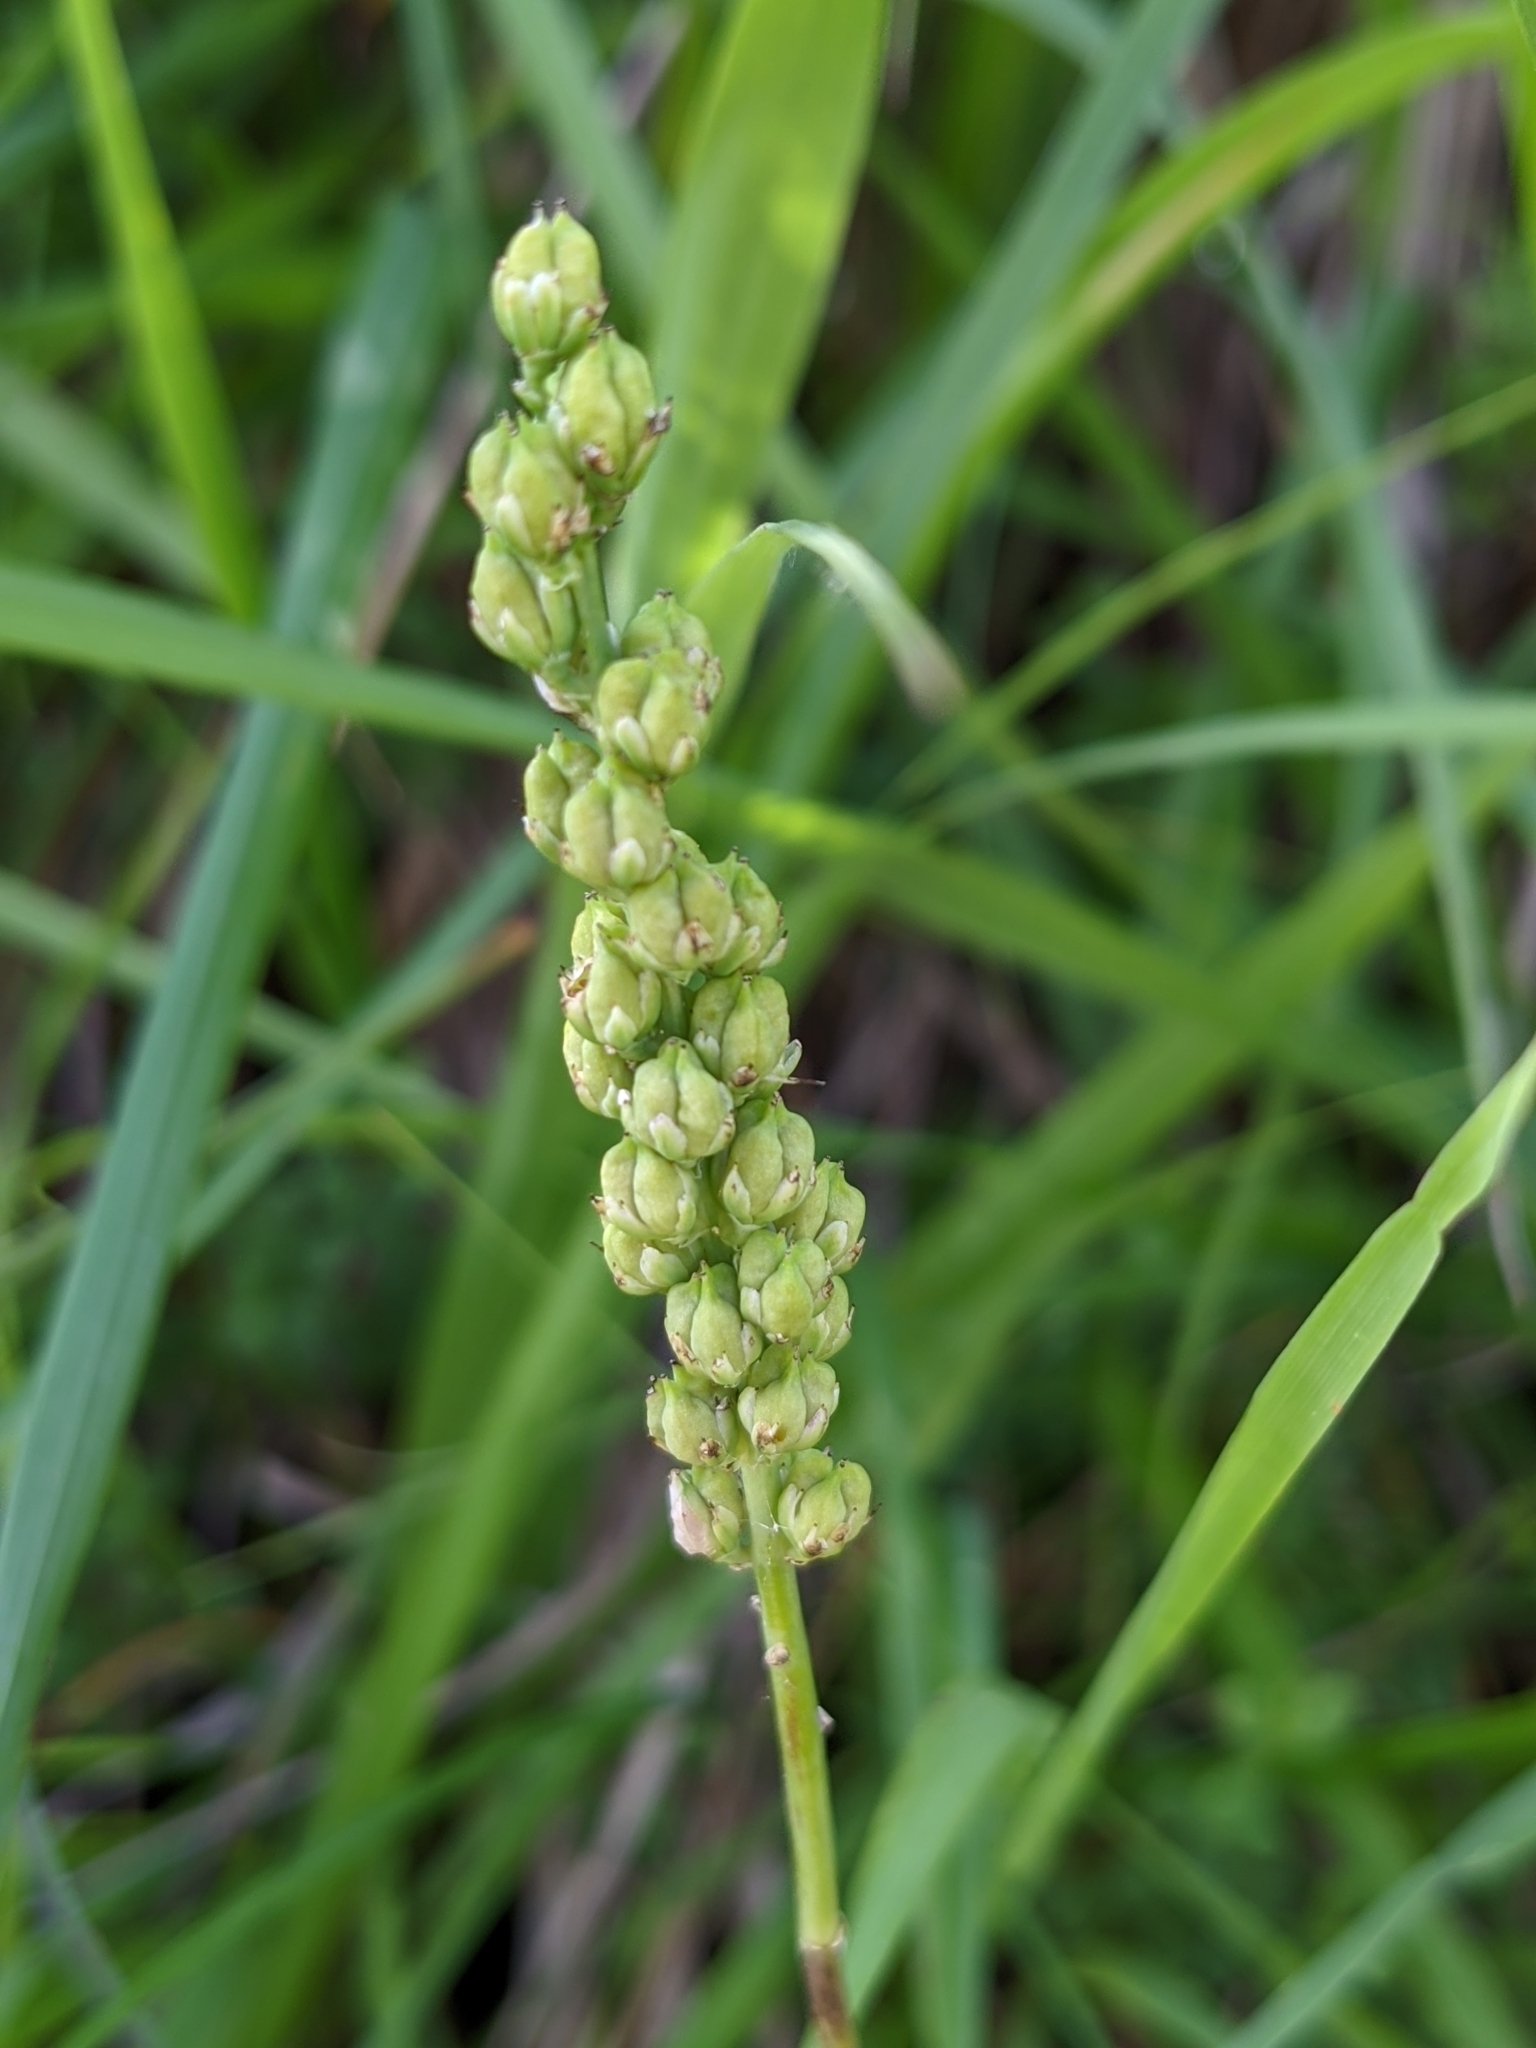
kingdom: Plantae
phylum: Tracheophyta
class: Liliopsida
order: Alismatales
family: Tofieldiaceae
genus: Tofieldia
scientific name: Tofieldia calyculata
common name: German-asphodel
